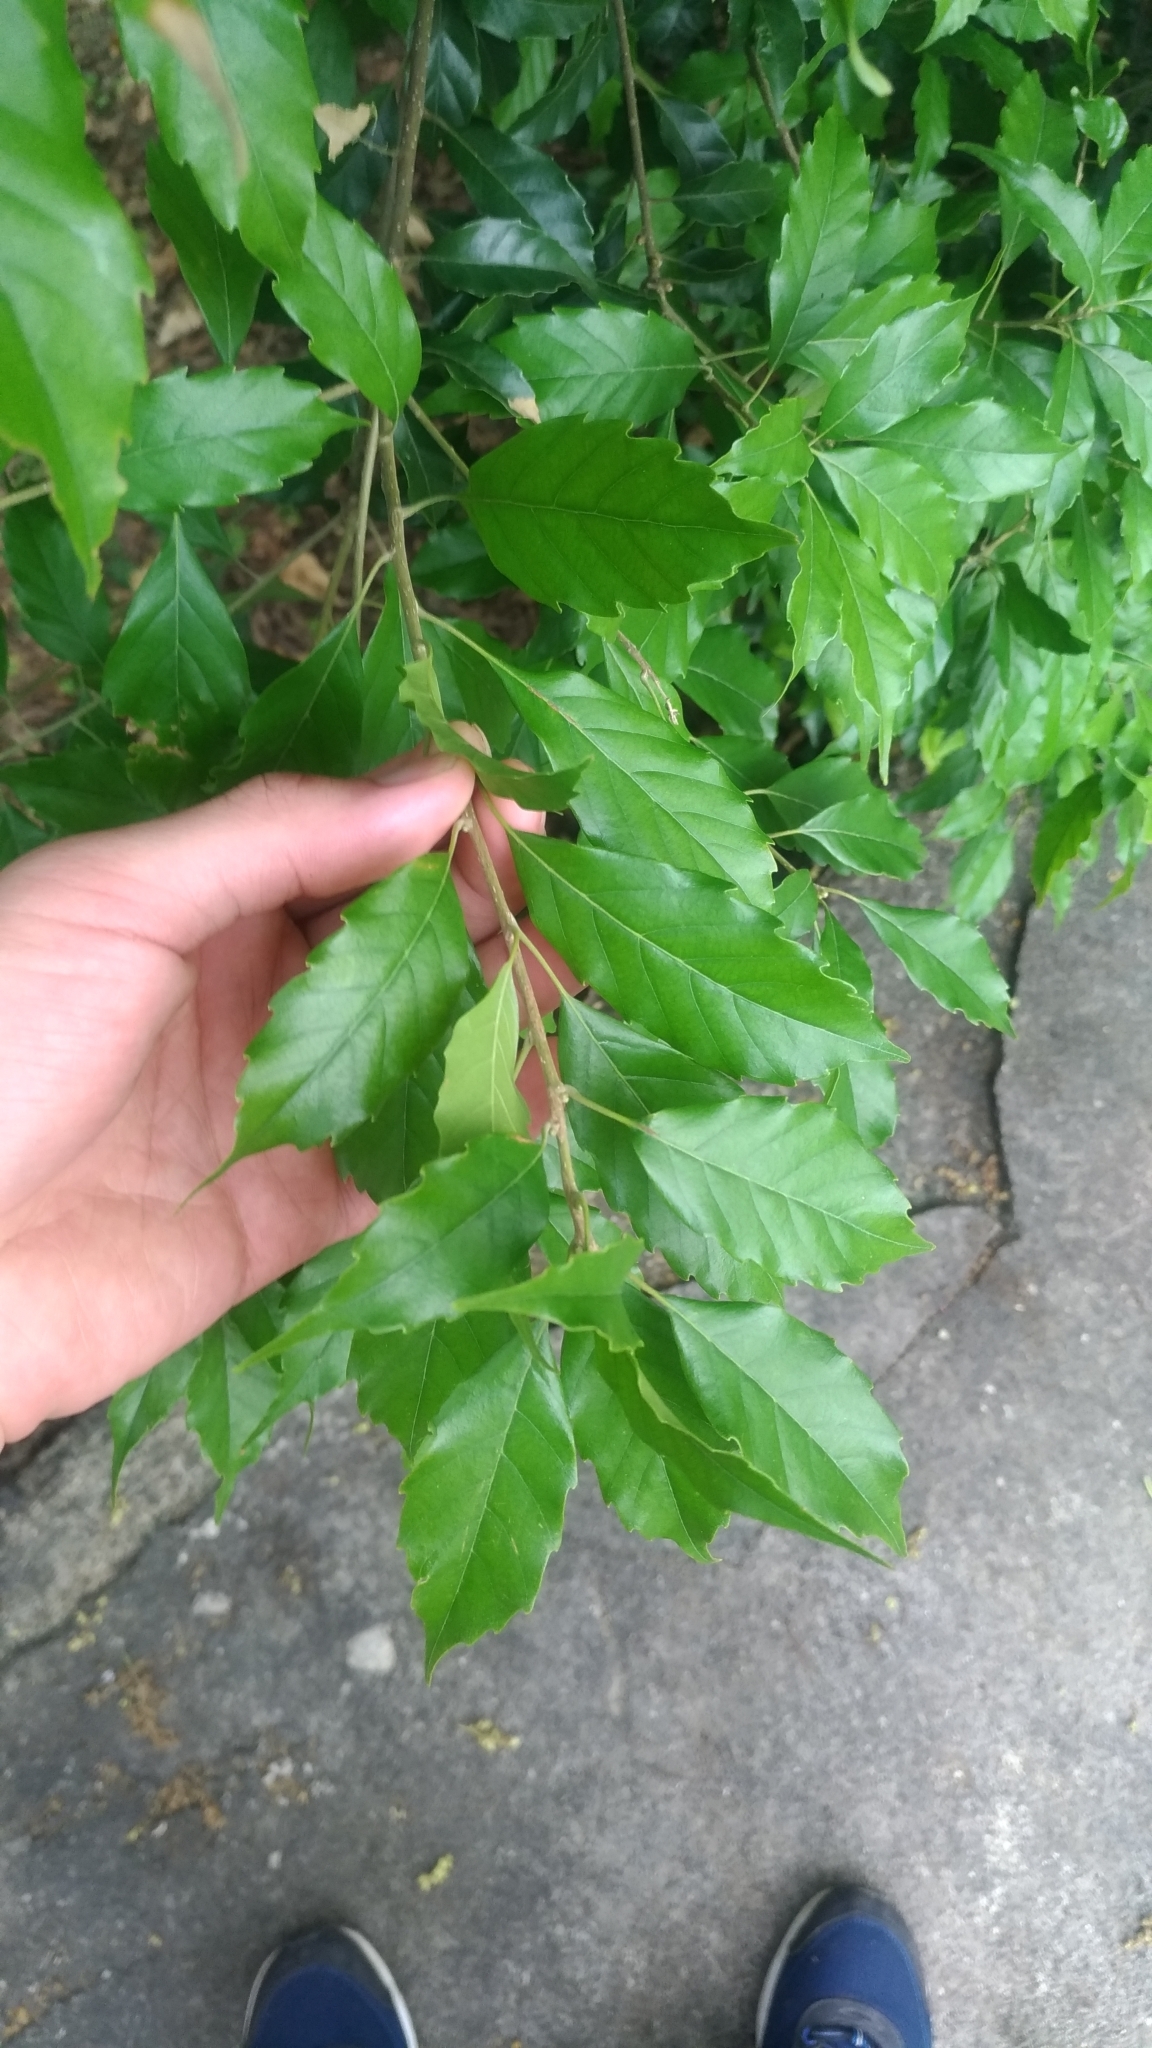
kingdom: Plantae
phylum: Tracheophyta
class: Magnoliopsida
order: Fagales
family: Fagaceae
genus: Lithocarpus
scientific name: Lithocarpus konishii
